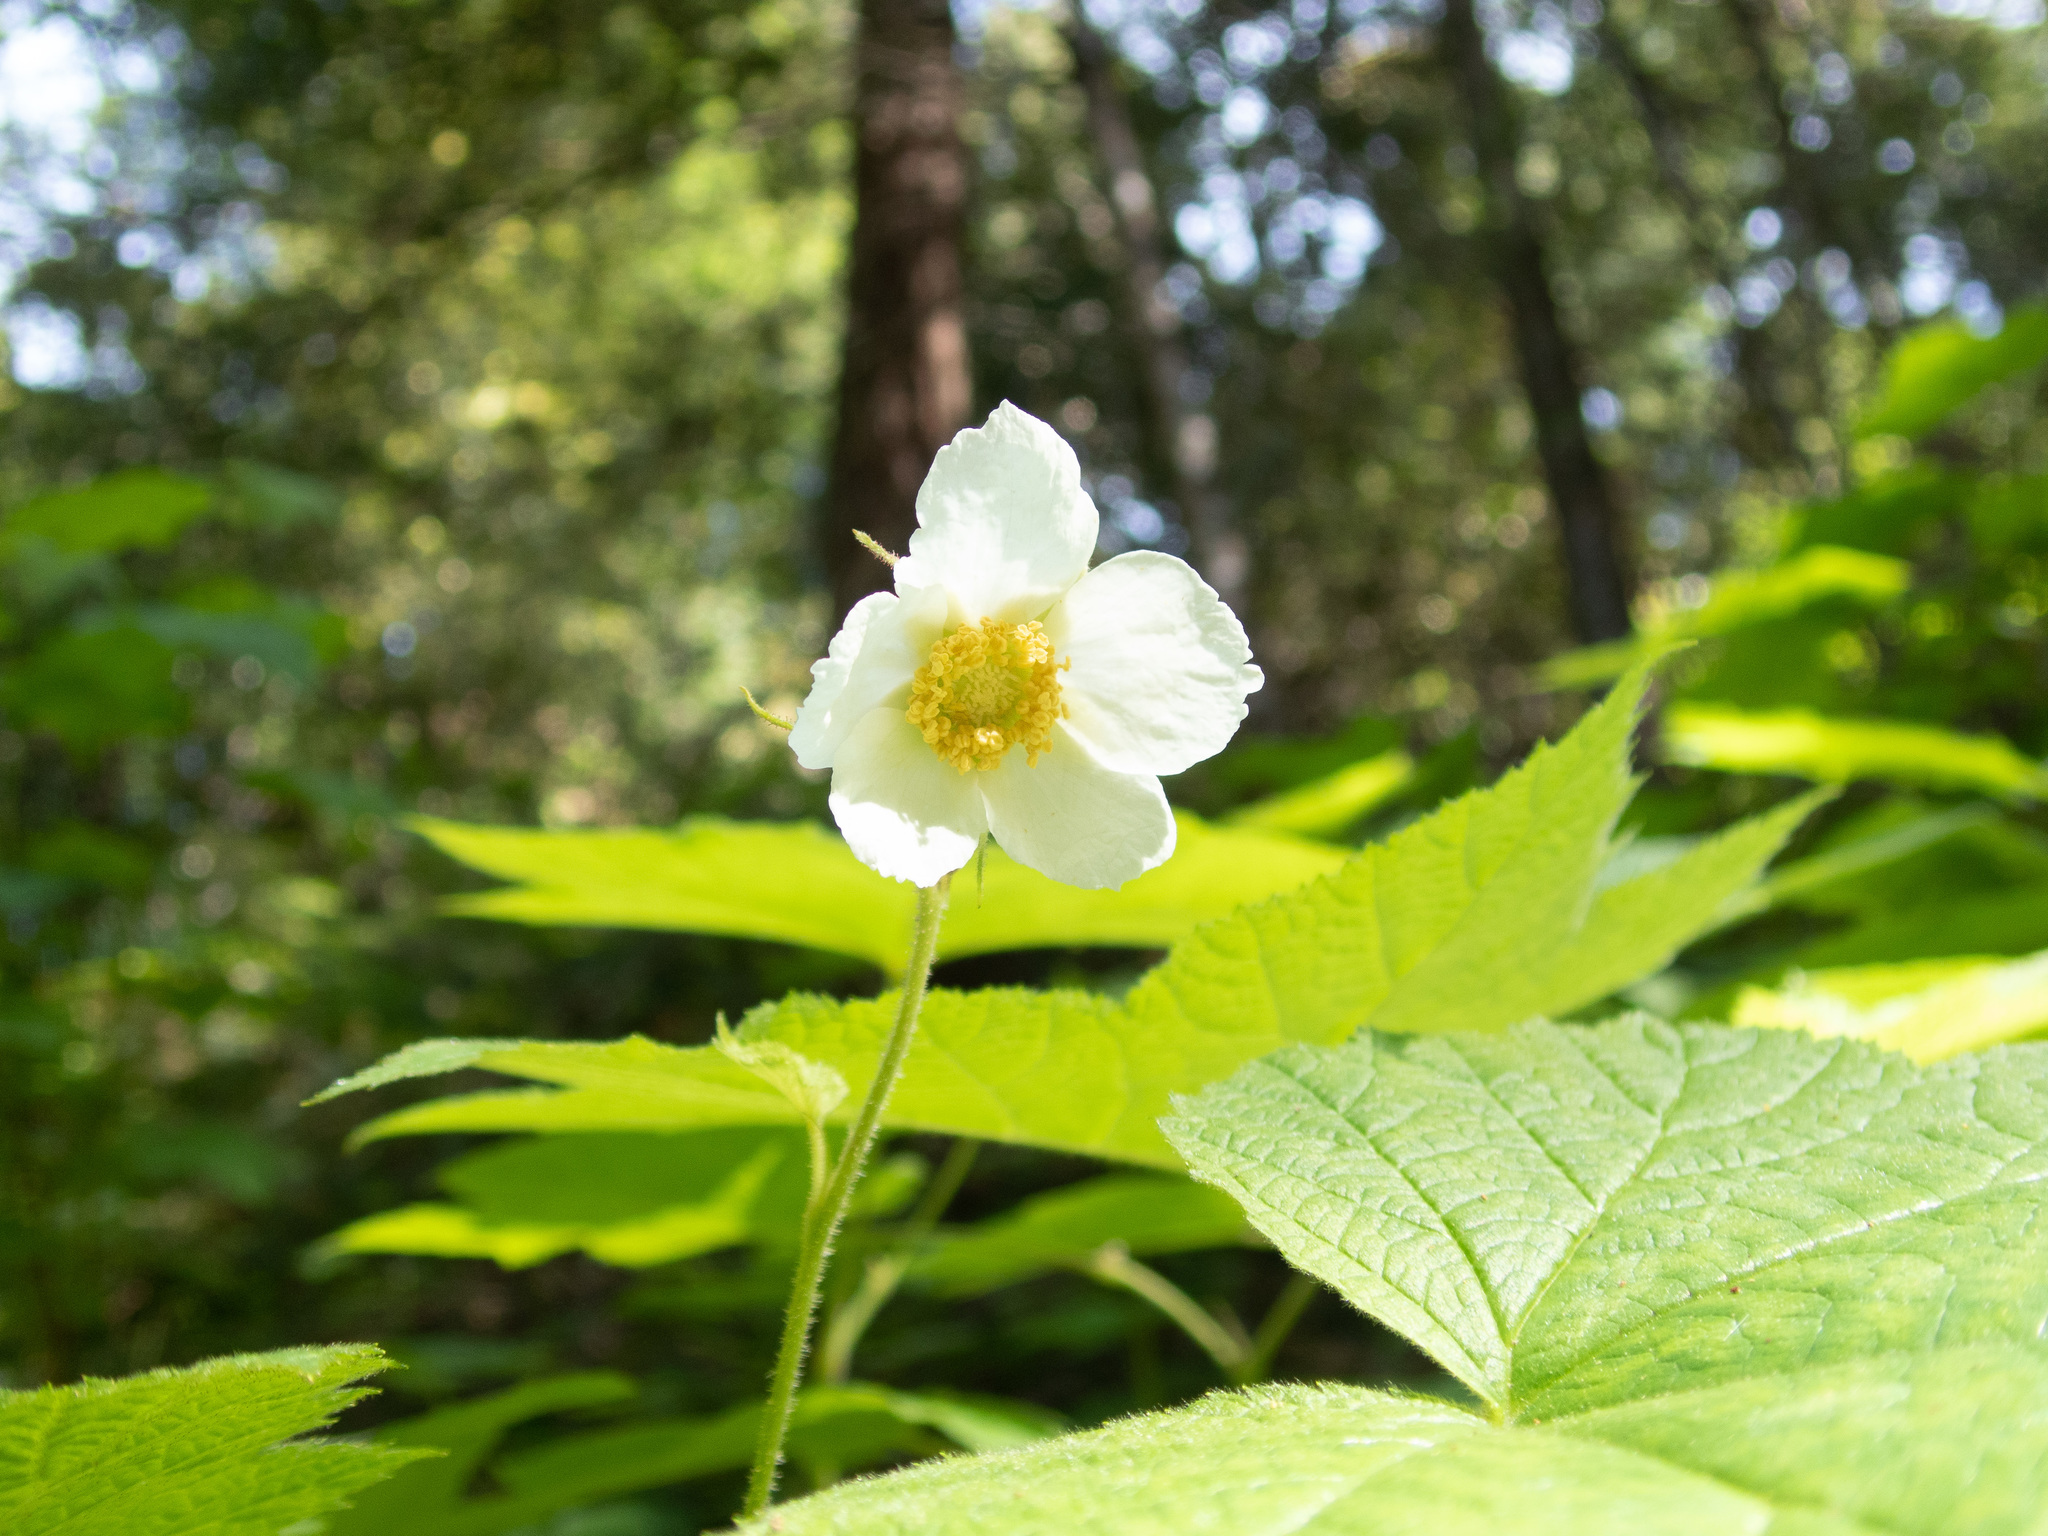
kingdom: Plantae
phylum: Tracheophyta
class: Magnoliopsida
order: Rosales
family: Rosaceae
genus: Rubus
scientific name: Rubus parviflorus
